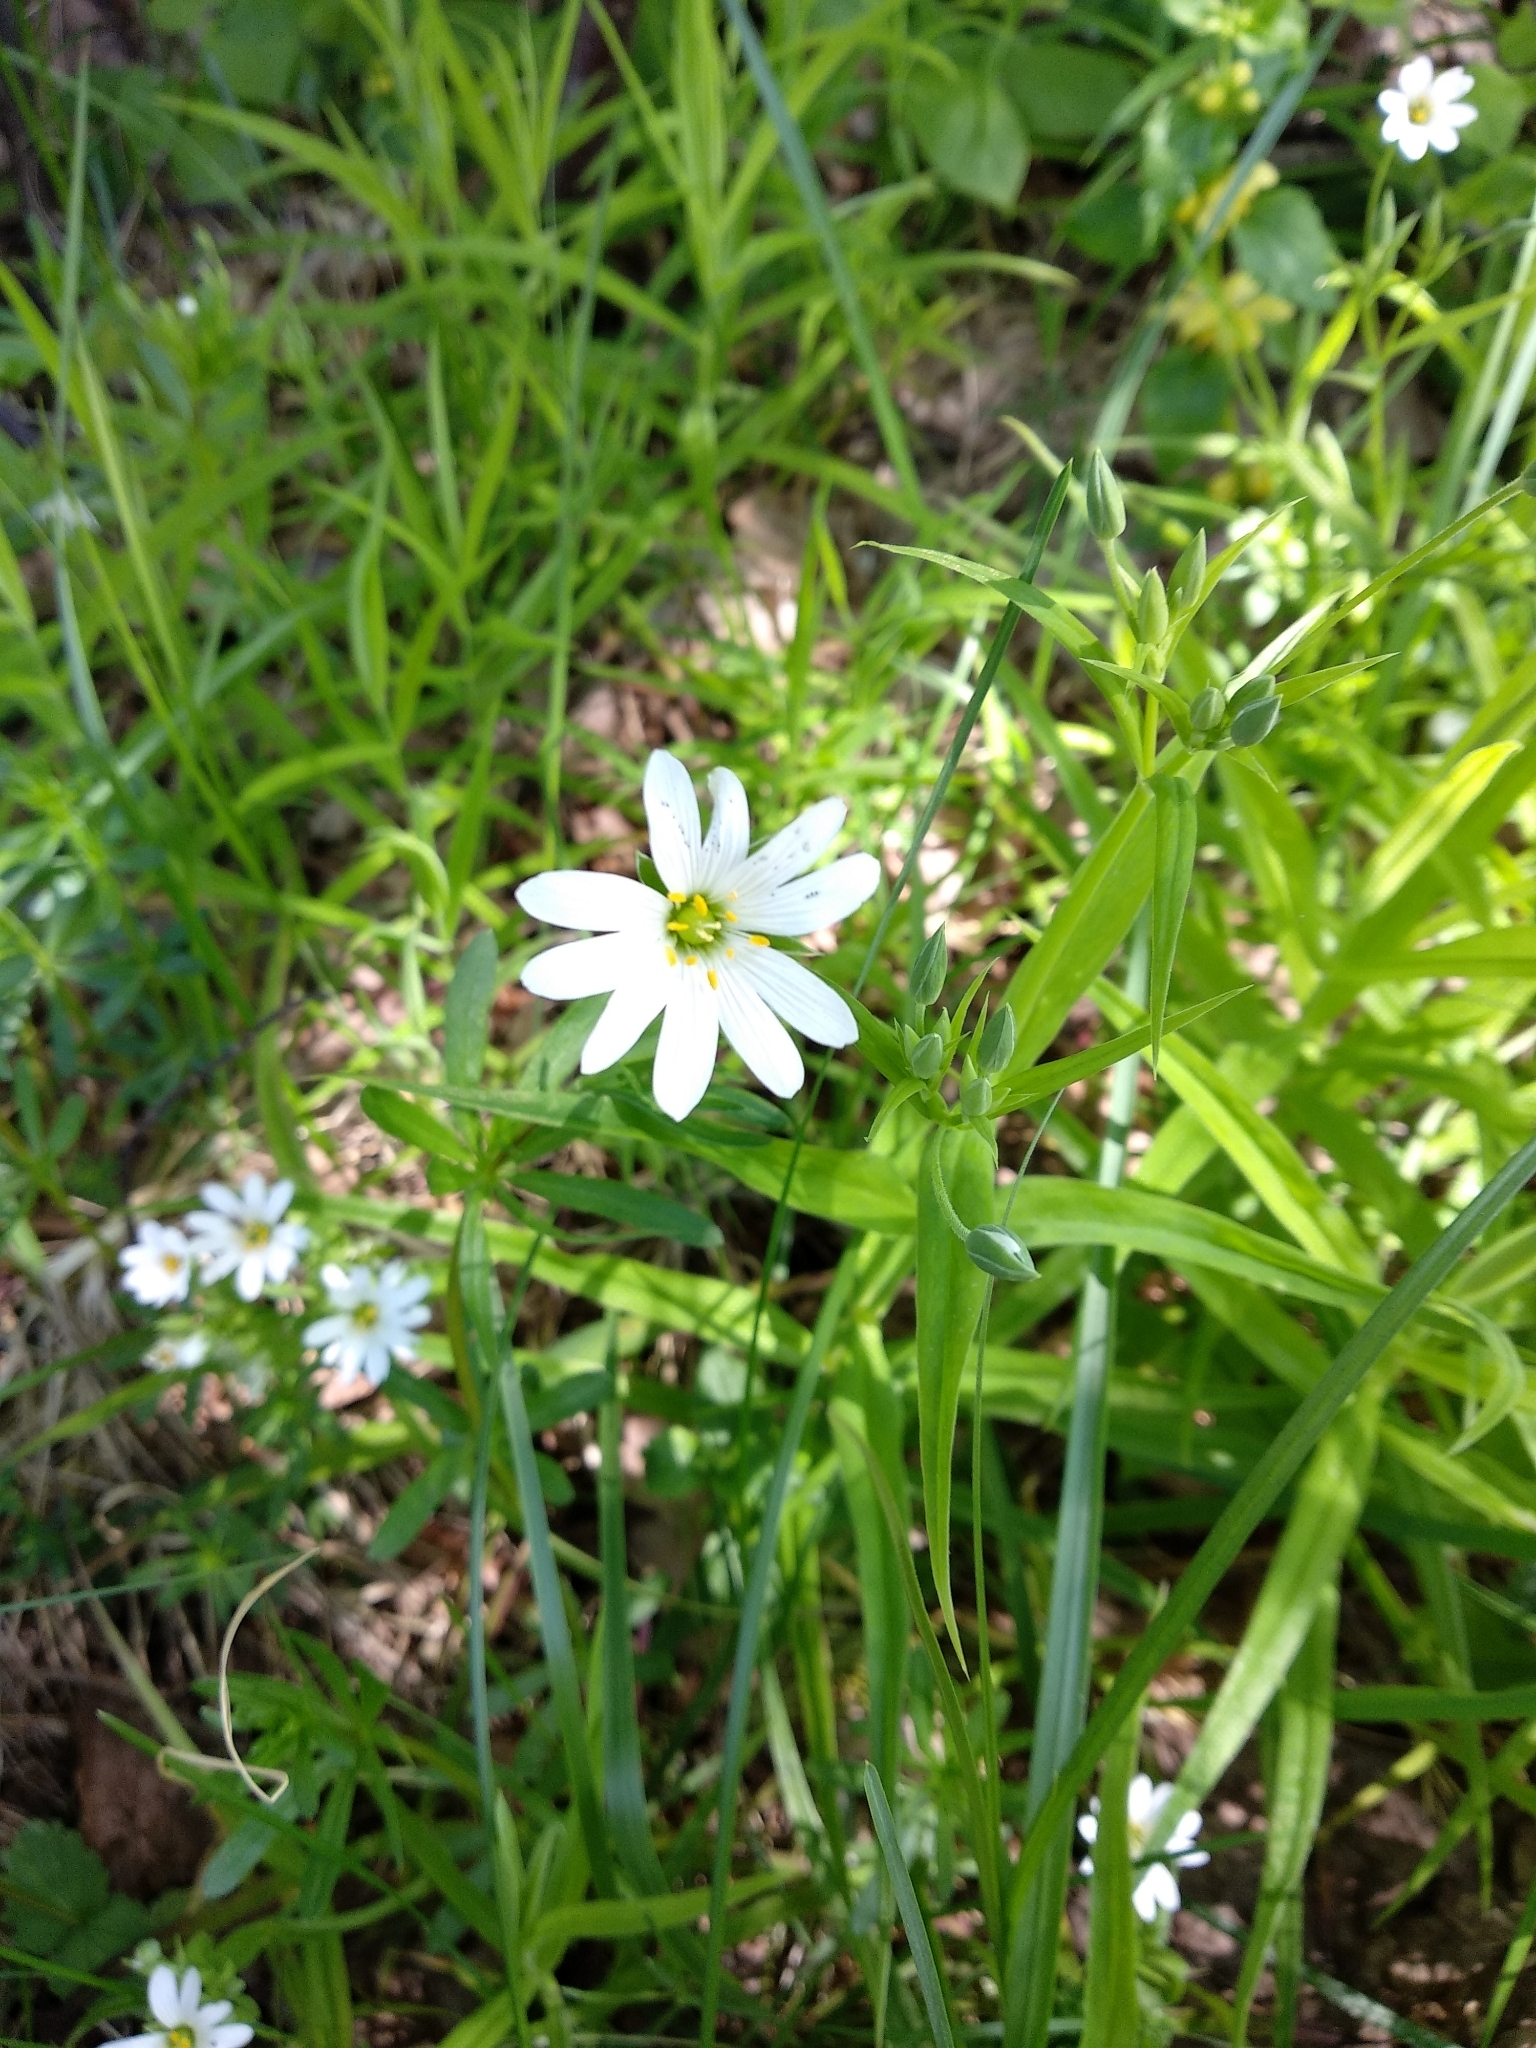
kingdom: Plantae
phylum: Tracheophyta
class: Magnoliopsida
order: Caryophyllales
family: Caryophyllaceae
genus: Rabelera
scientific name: Rabelera holostea
